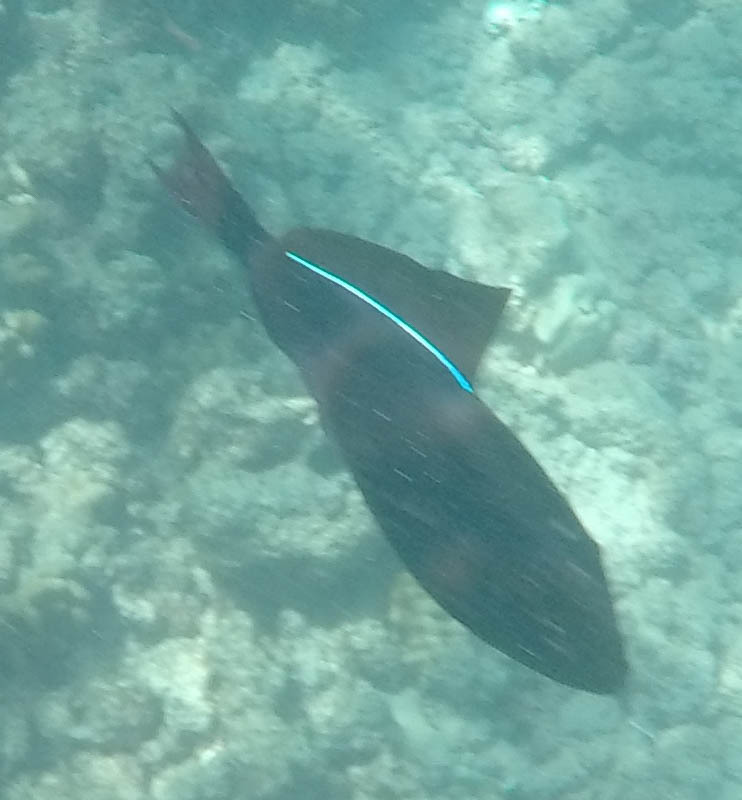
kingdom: Animalia
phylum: Chordata
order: Tetraodontiformes
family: Balistidae
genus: Melichthys
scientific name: Melichthys niger
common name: Black durgon
